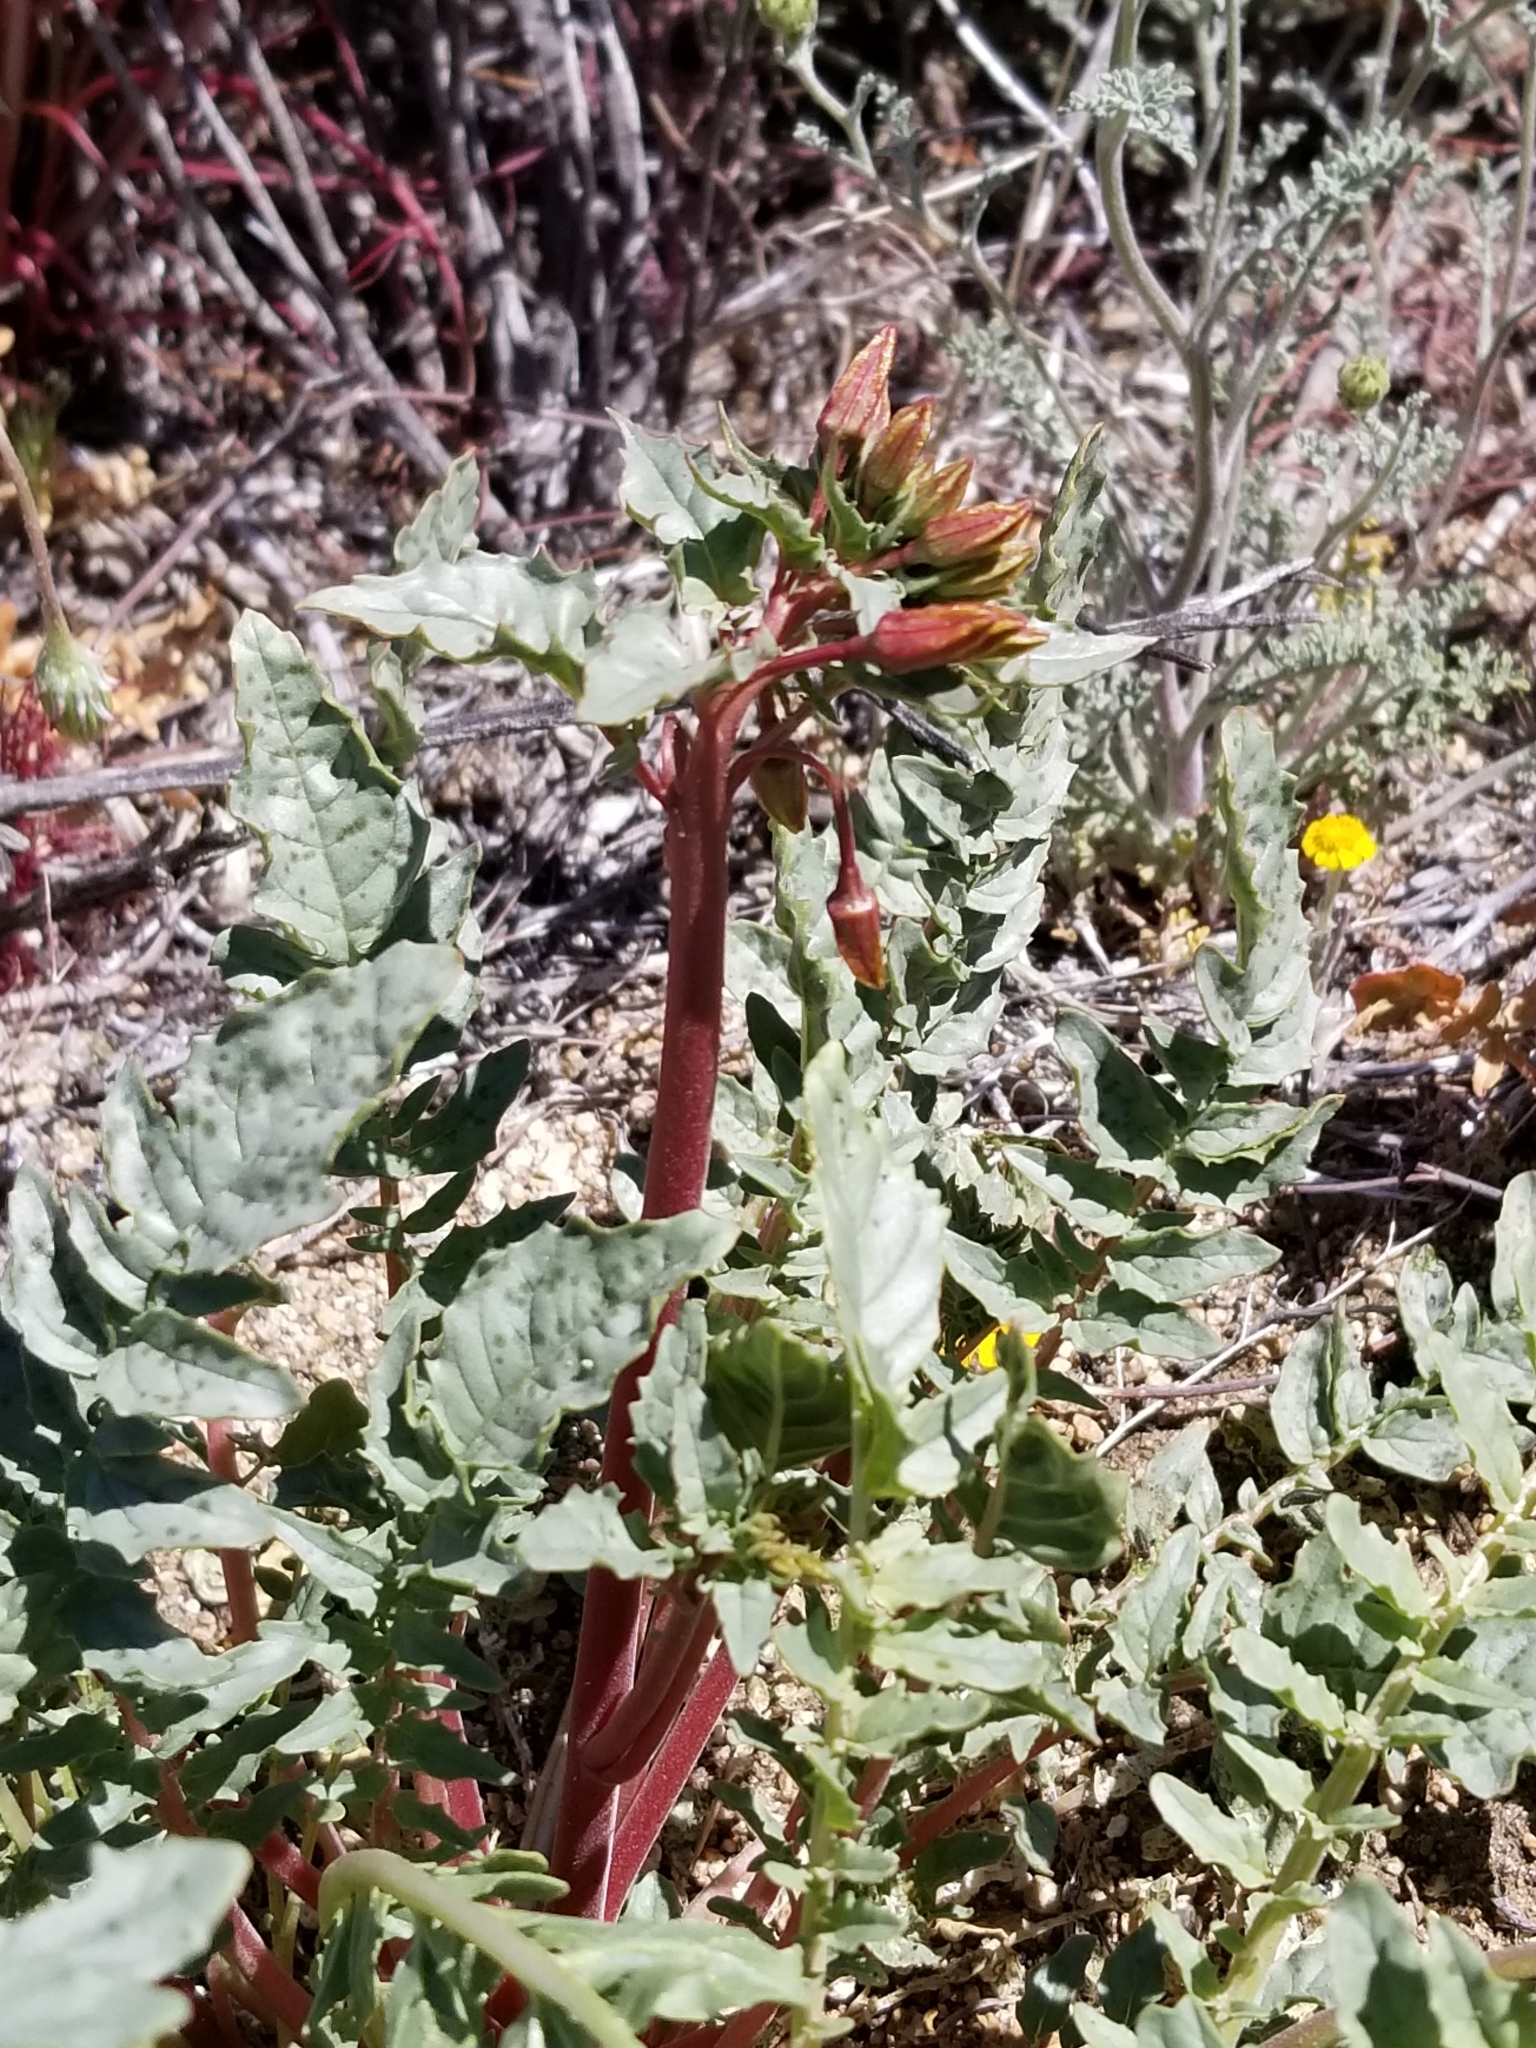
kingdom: Plantae
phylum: Tracheophyta
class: Magnoliopsida
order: Myrtales
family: Onagraceae
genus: Chylismia
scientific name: Chylismia claviformis
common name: Browneyes
